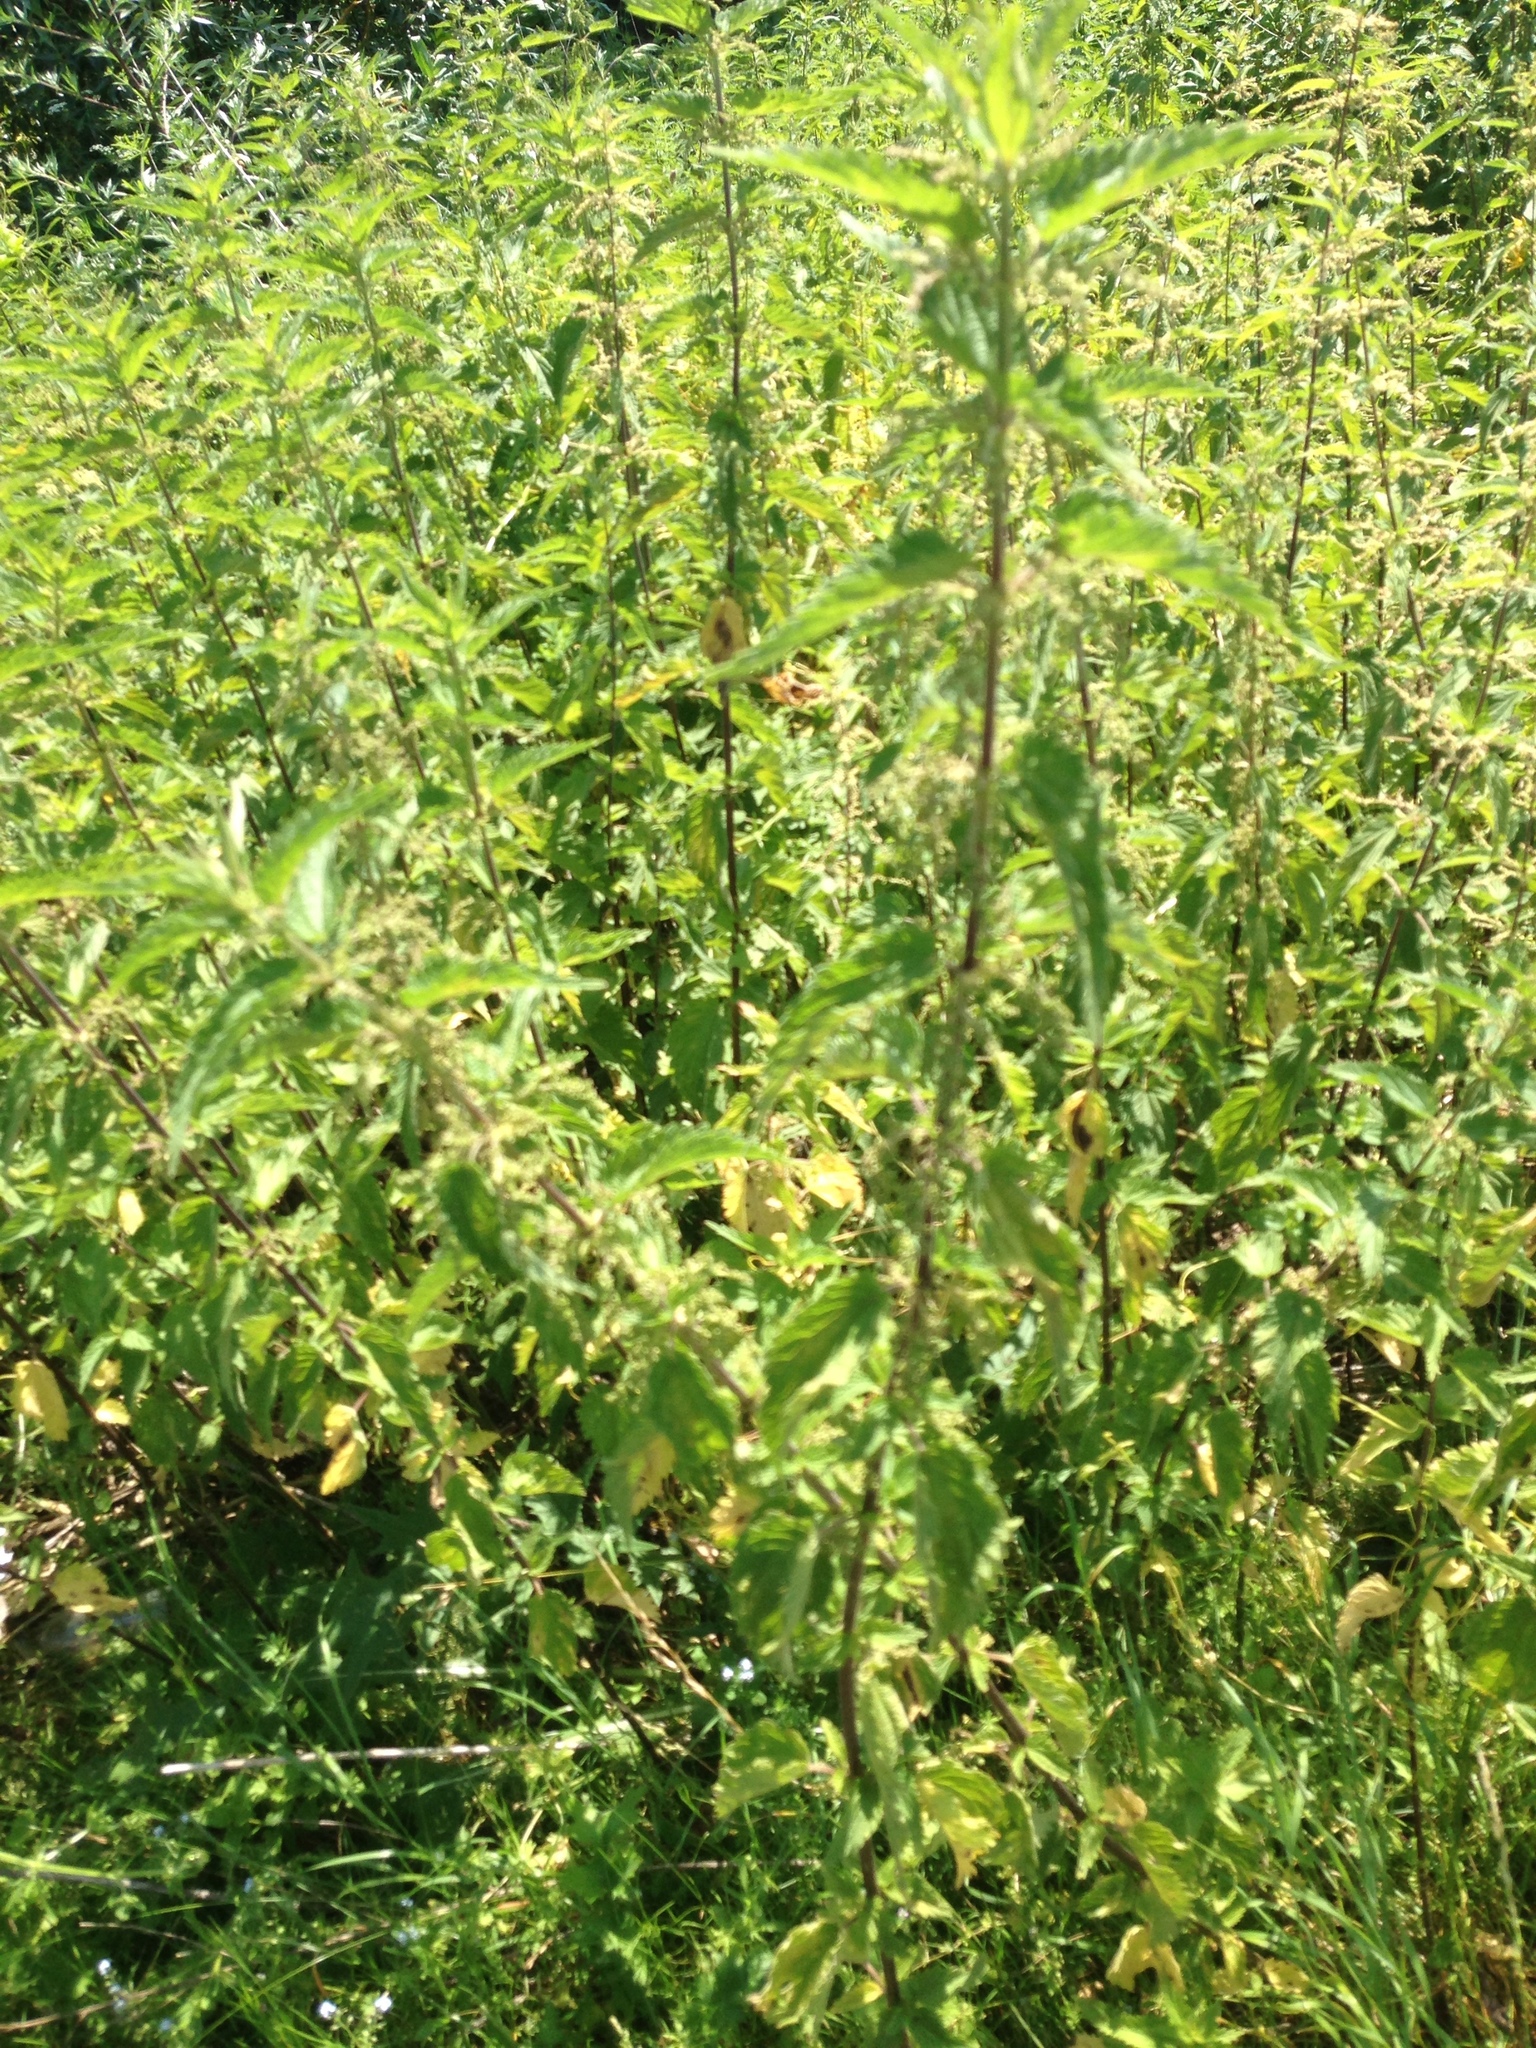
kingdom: Plantae
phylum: Tracheophyta
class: Magnoliopsida
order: Rosales
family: Urticaceae
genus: Urtica
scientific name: Urtica dioica
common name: Common nettle
